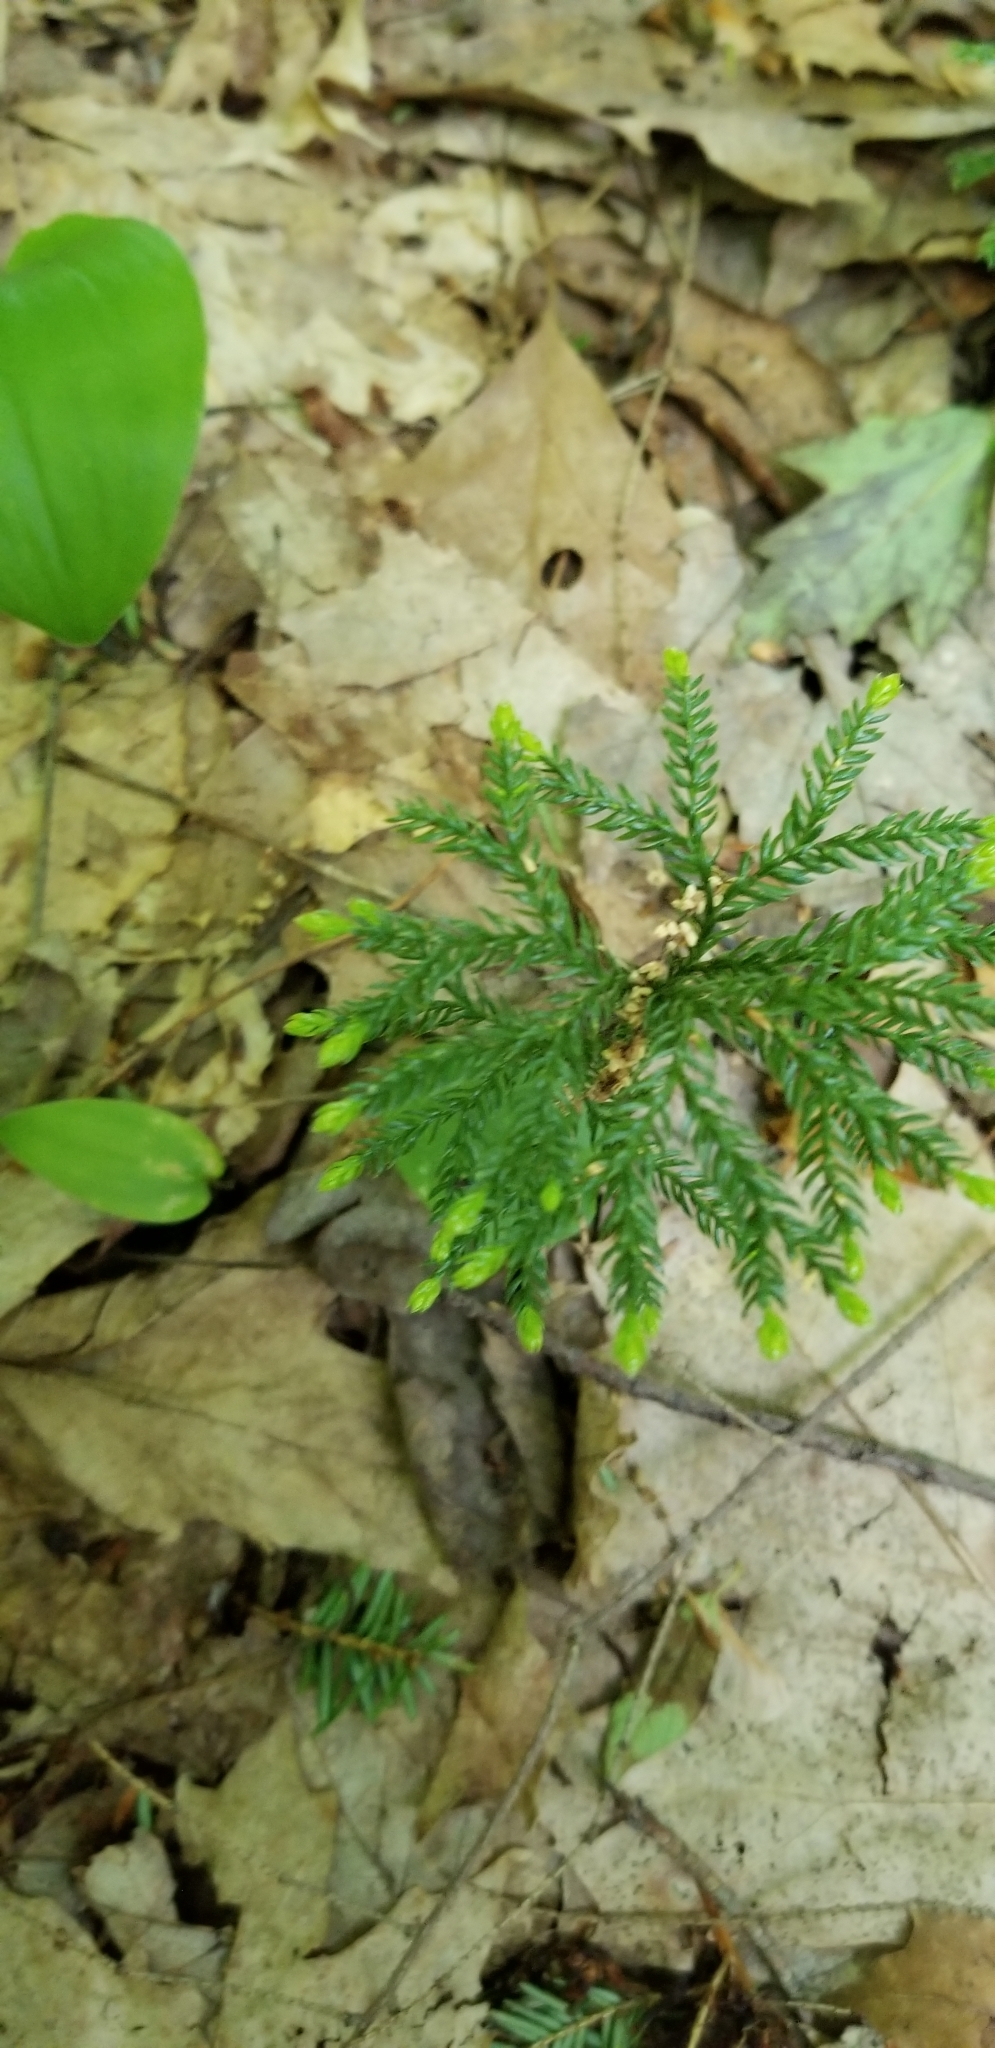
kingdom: Plantae
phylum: Tracheophyta
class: Lycopodiopsida
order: Lycopodiales
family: Lycopodiaceae
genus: Dendrolycopodium
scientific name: Dendrolycopodium obscurum
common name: Common ground-pine
